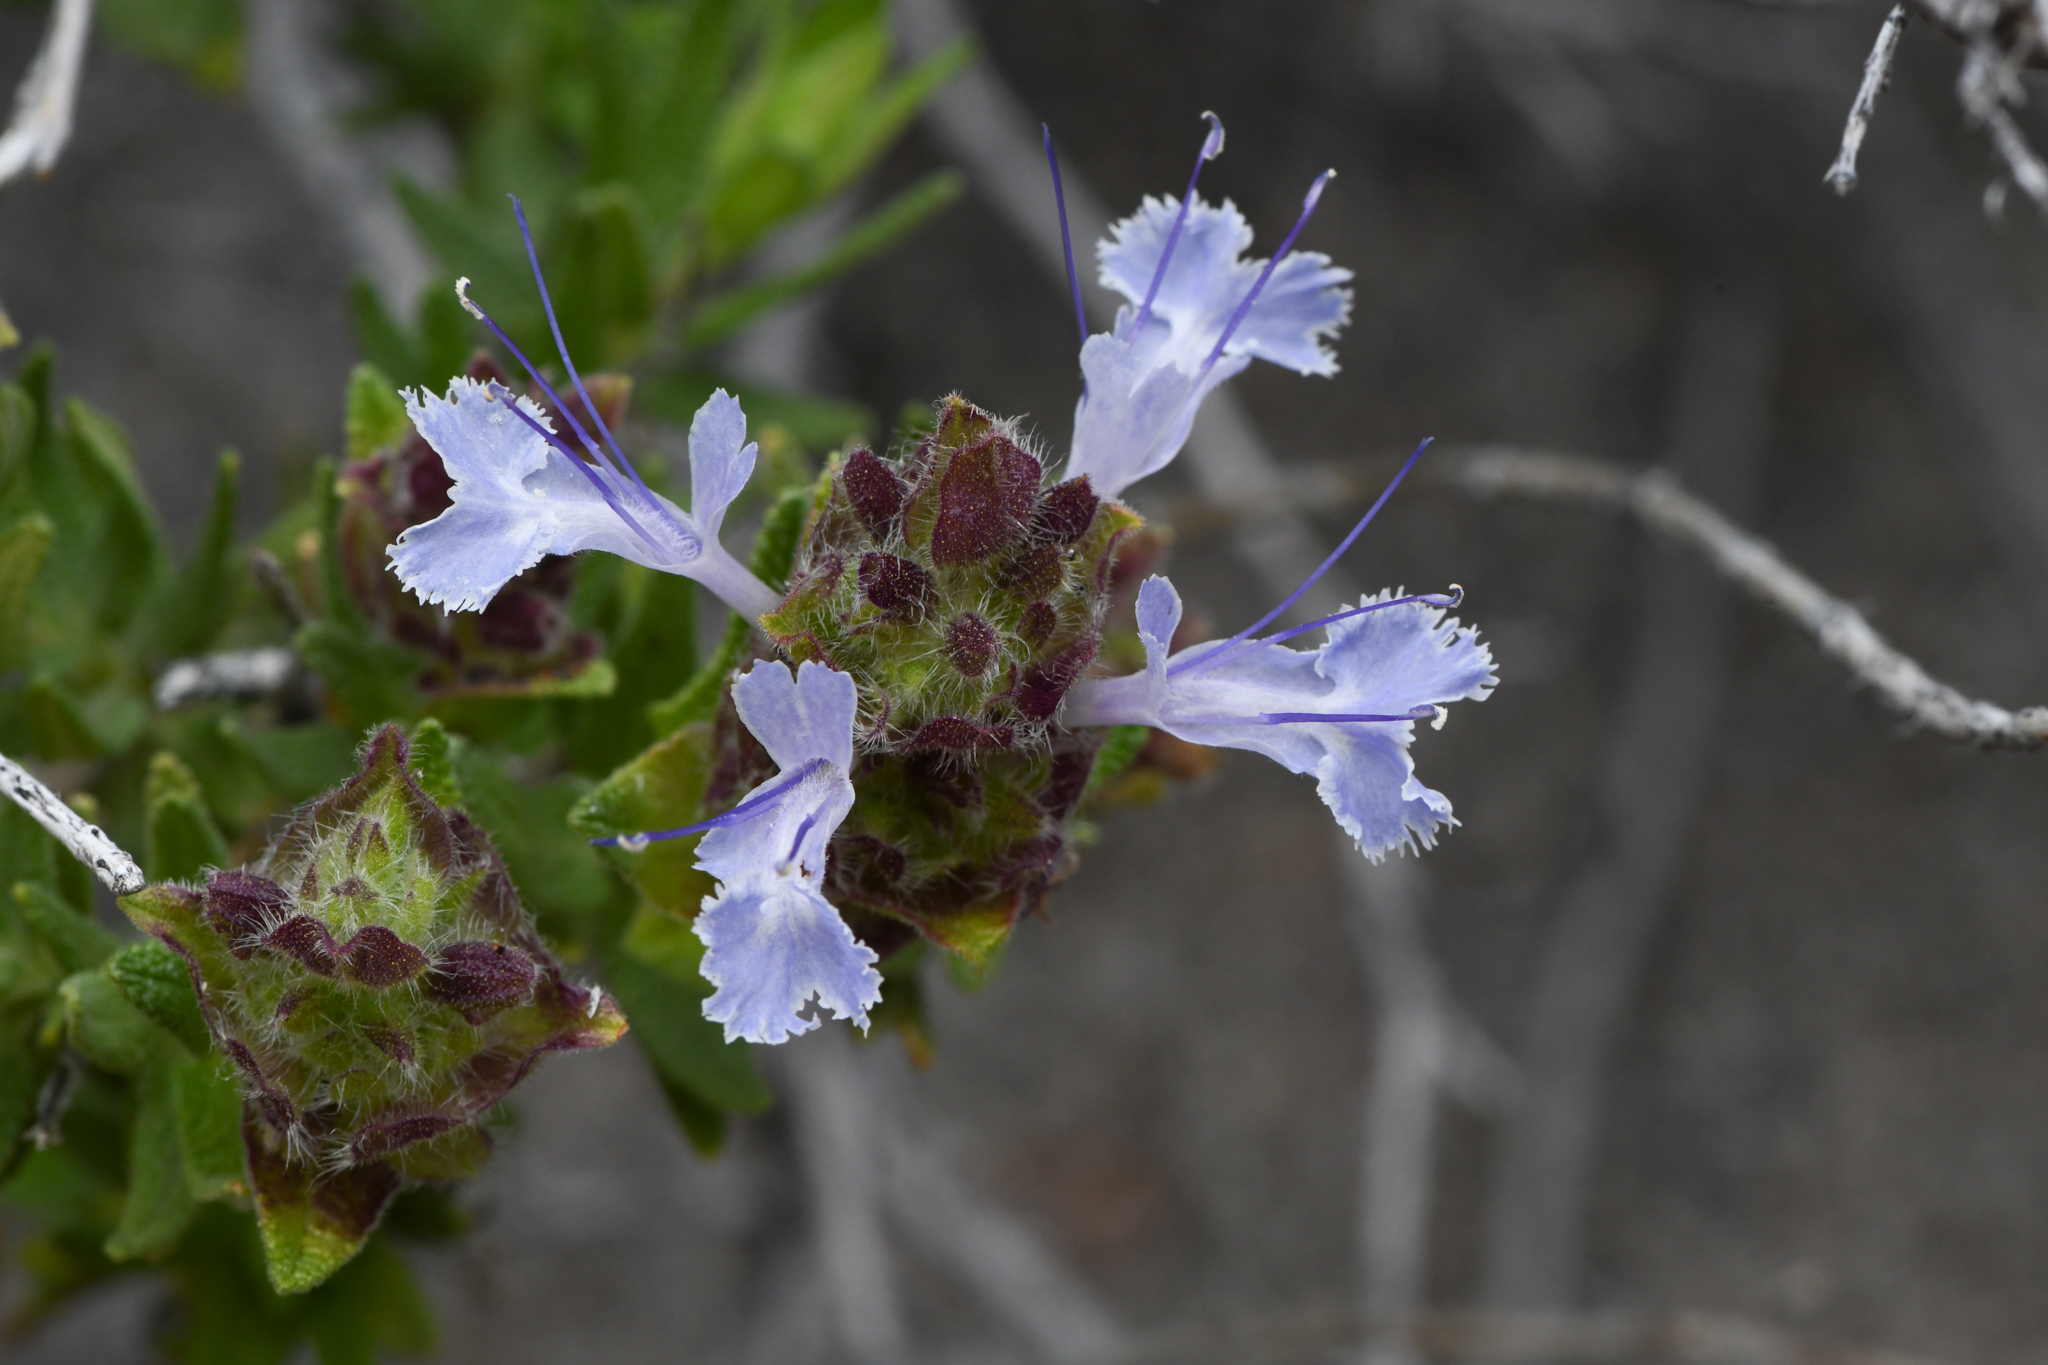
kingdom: Plantae
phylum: Tracheophyta
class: Magnoliopsida
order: Lamiales
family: Lamiaceae
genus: Salvia
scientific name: Salvia eremostachya
